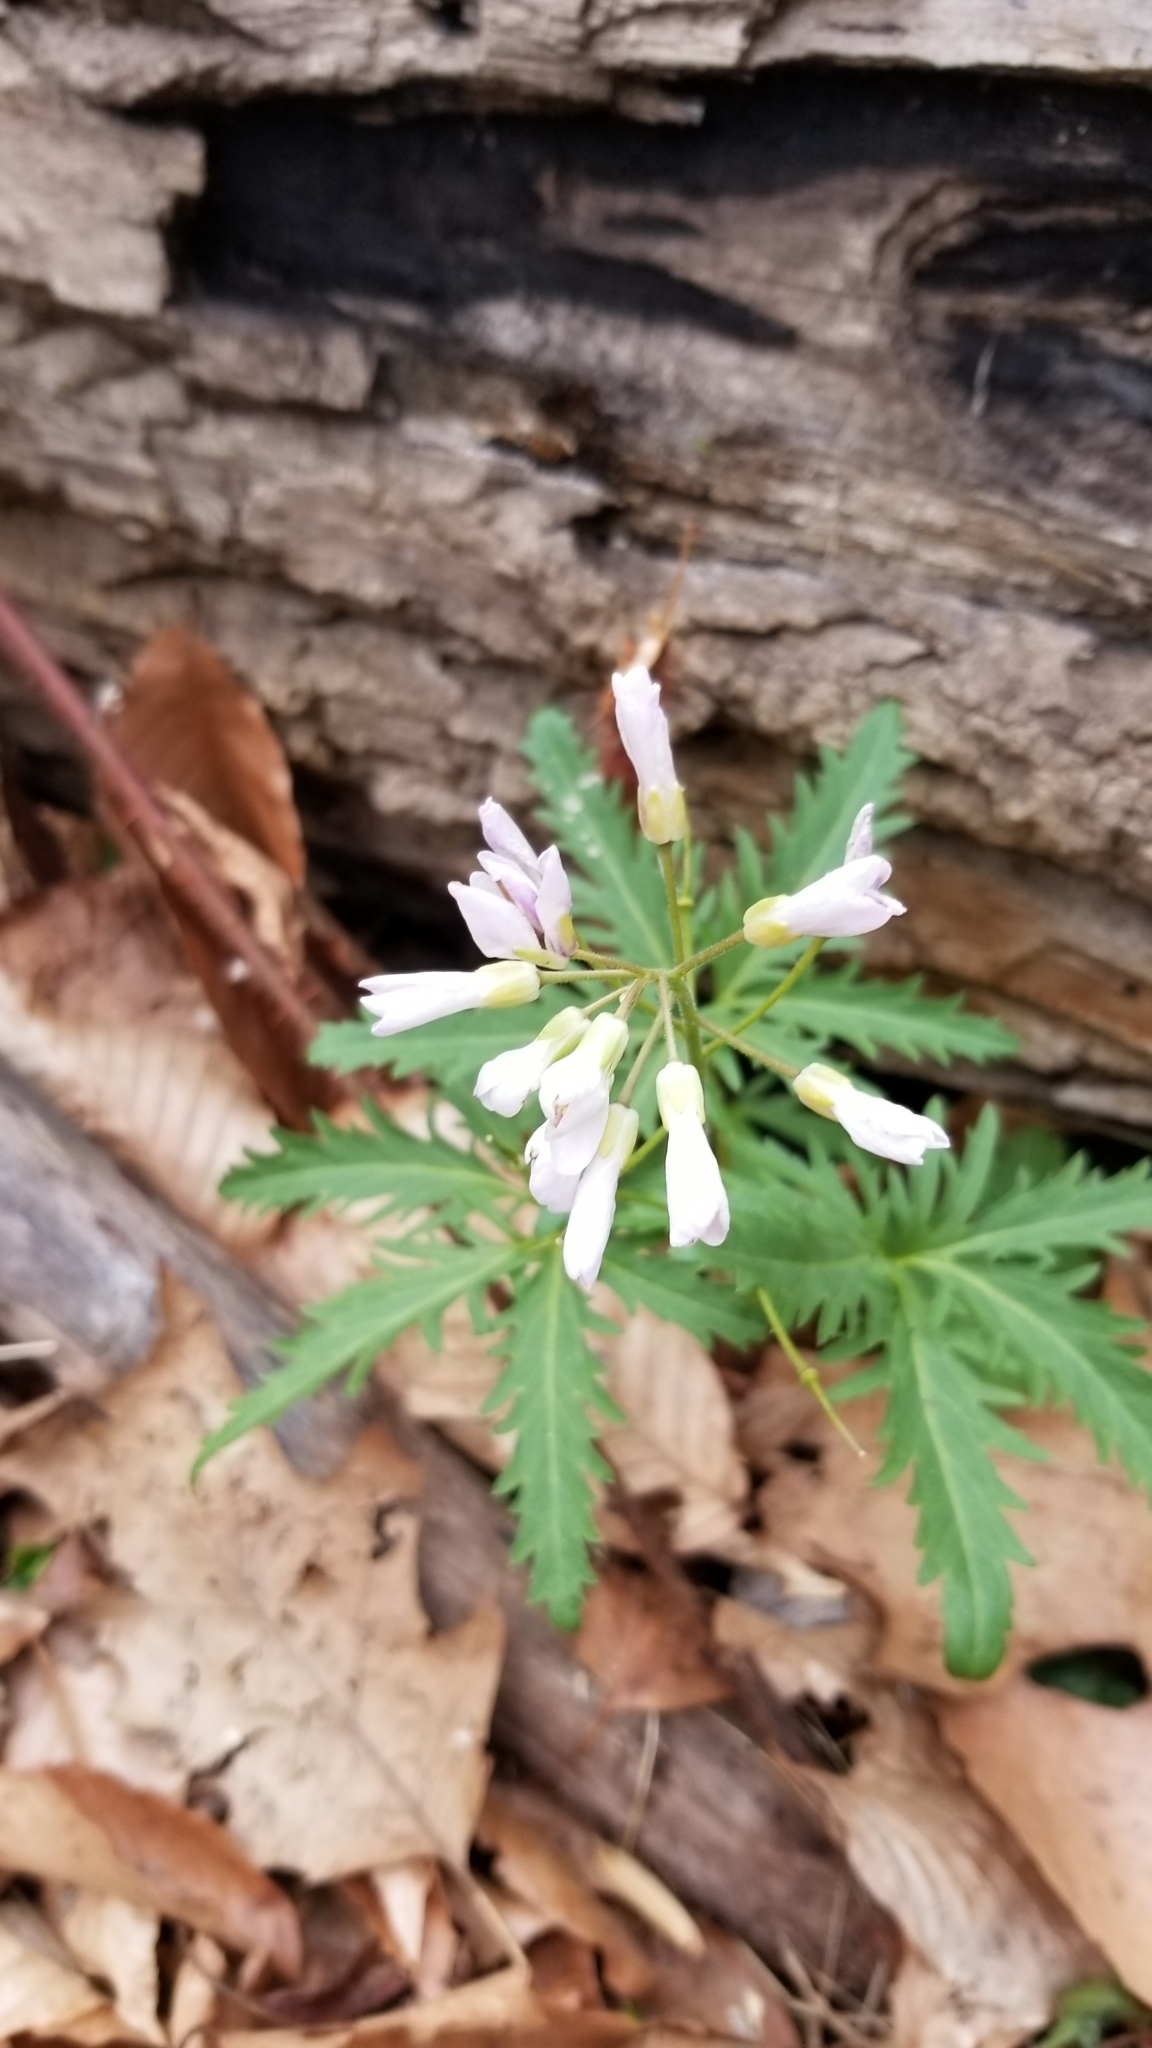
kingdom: Plantae
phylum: Tracheophyta
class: Magnoliopsida
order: Brassicales
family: Brassicaceae
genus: Cardamine
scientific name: Cardamine concatenata
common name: Cut-leaf toothcup
